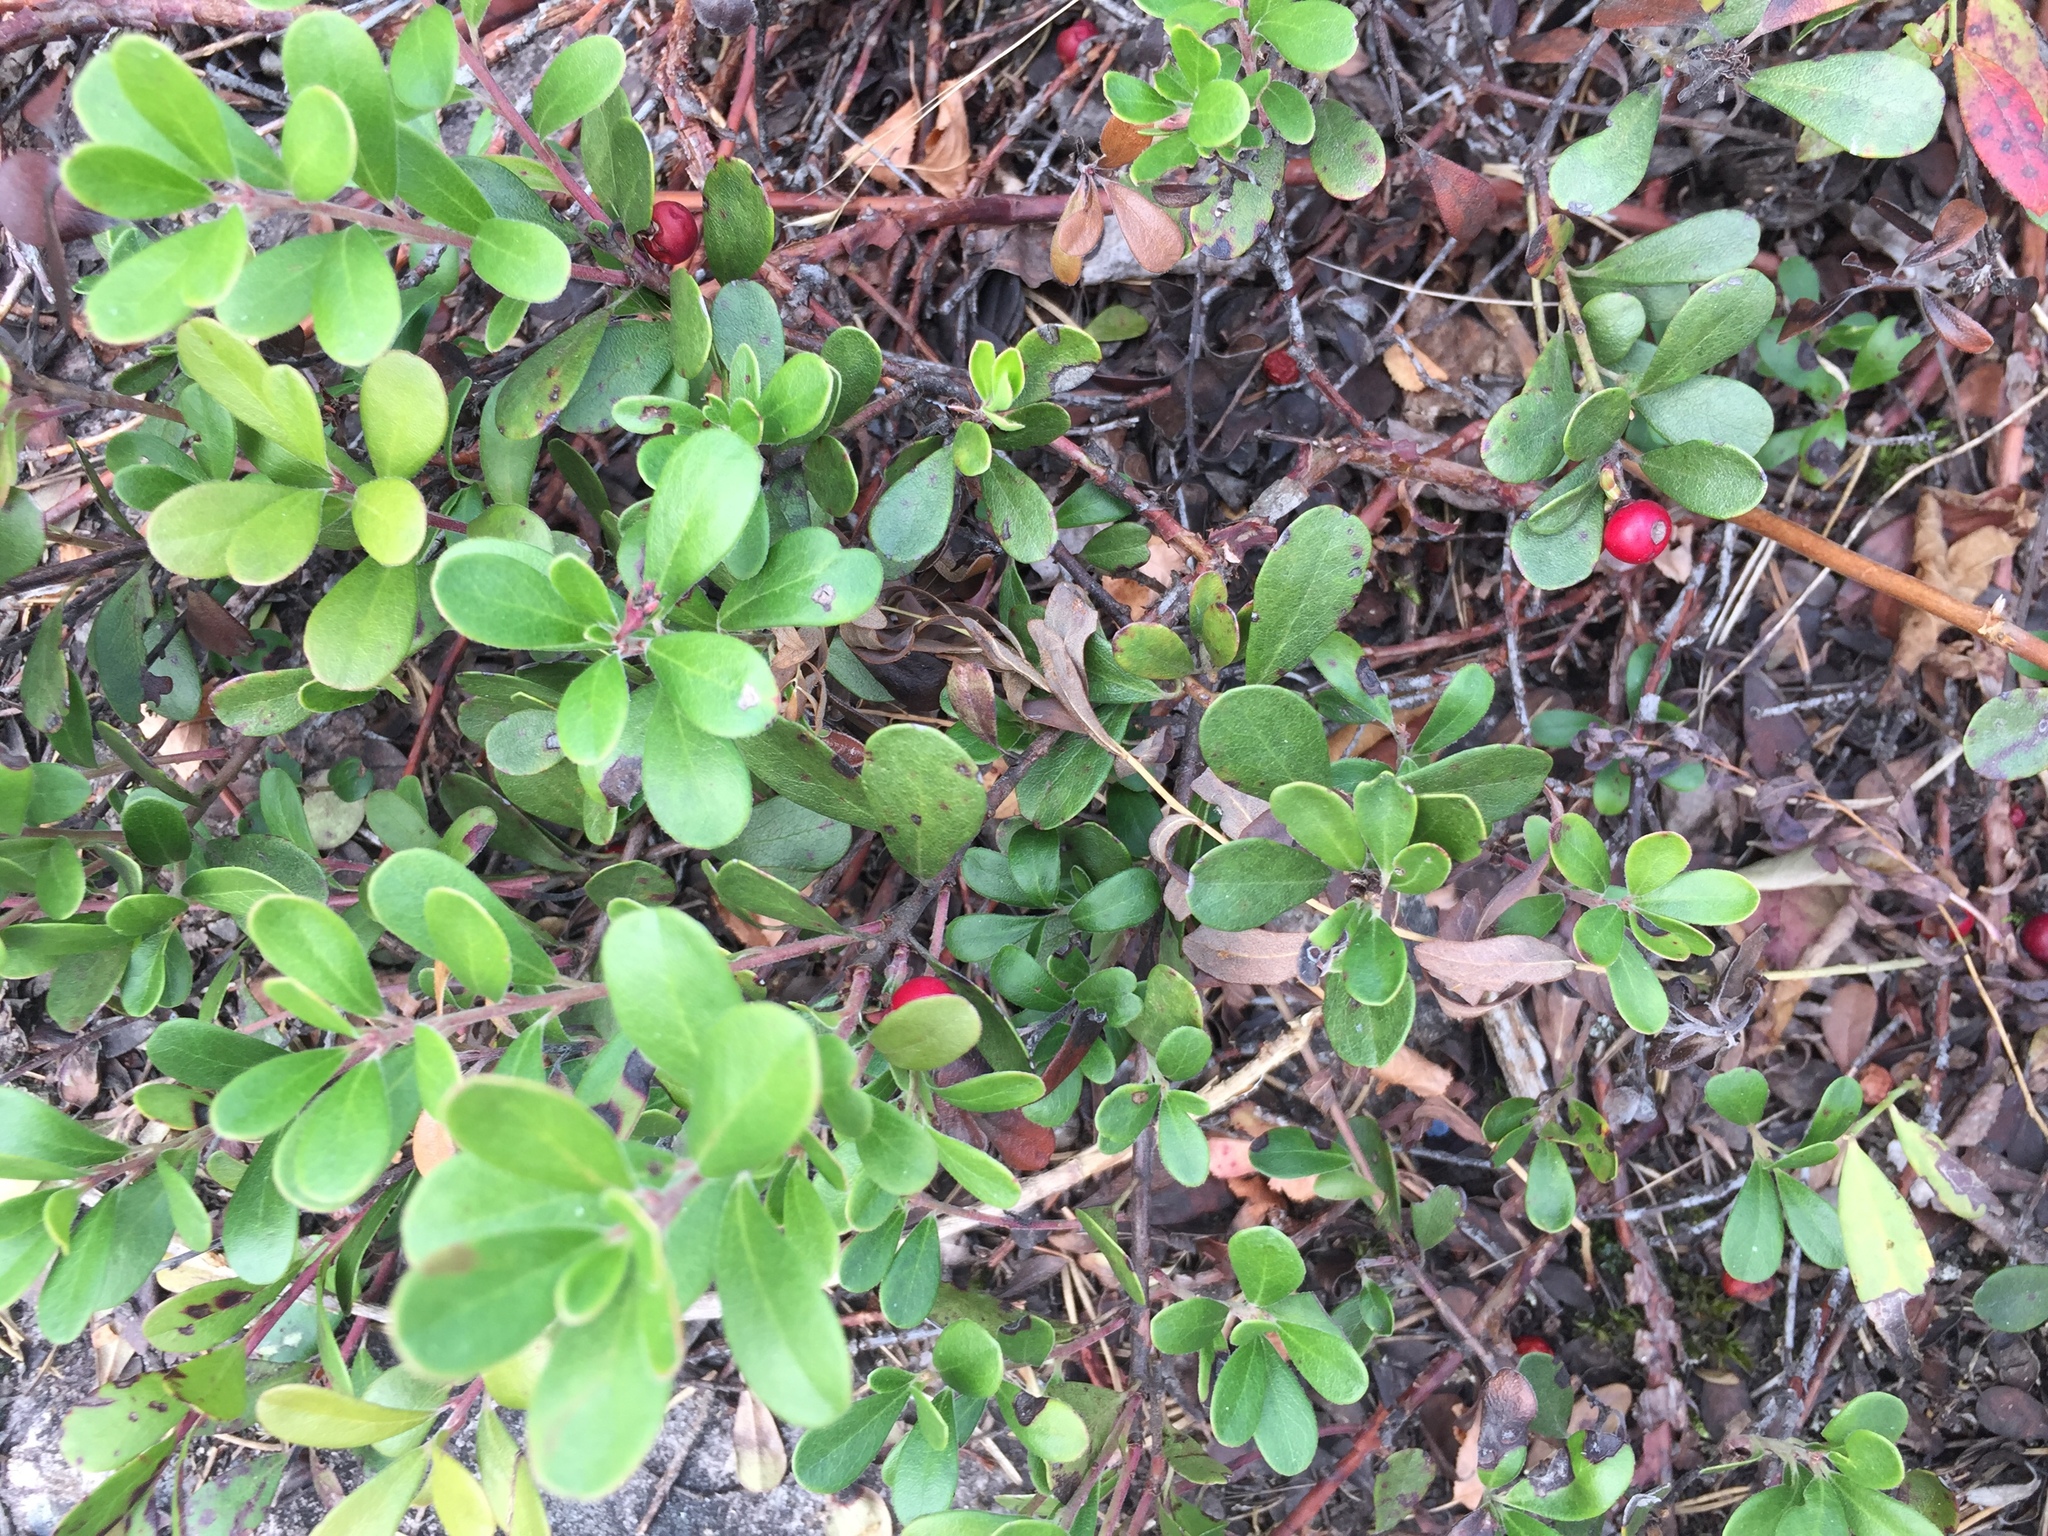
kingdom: Plantae
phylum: Tracheophyta
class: Magnoliopsida
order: Ericales
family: Ericaceae
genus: Arctostaphylos
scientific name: Arctostaphylos uva-ursi
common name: Bearberry
